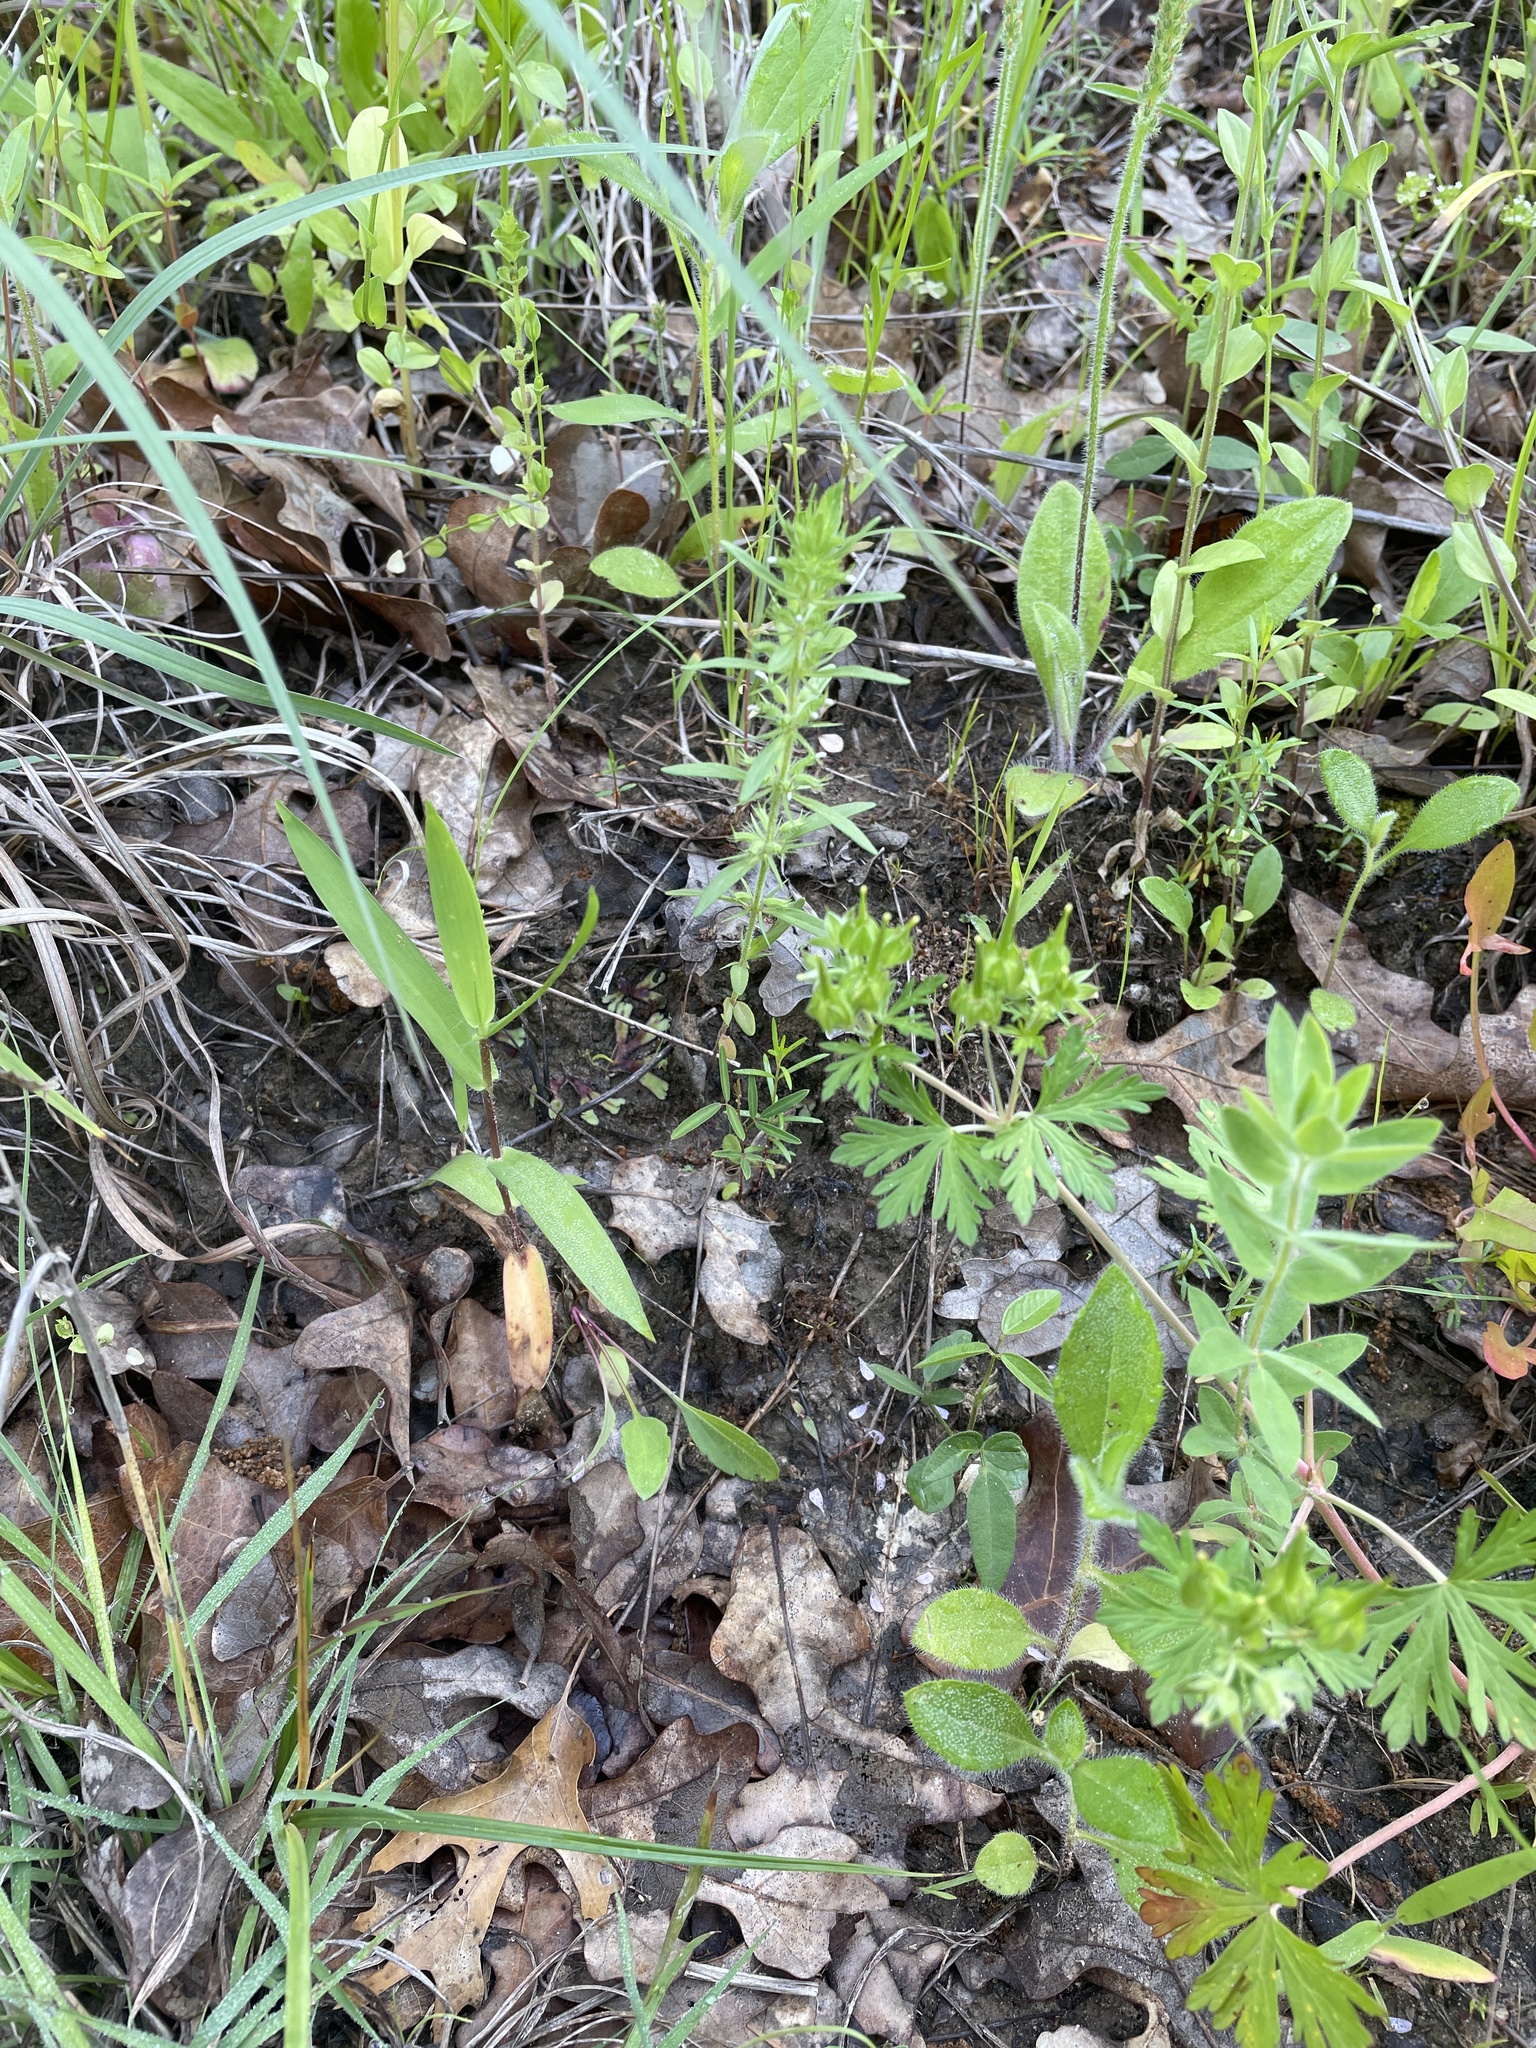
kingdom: Plantae
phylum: Tracheophyta
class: Magnoliopsida
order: Lamiales
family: Lamiaceae
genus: Hedeoma
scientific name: Hedeoma hispida
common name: Mock pennyroyal
